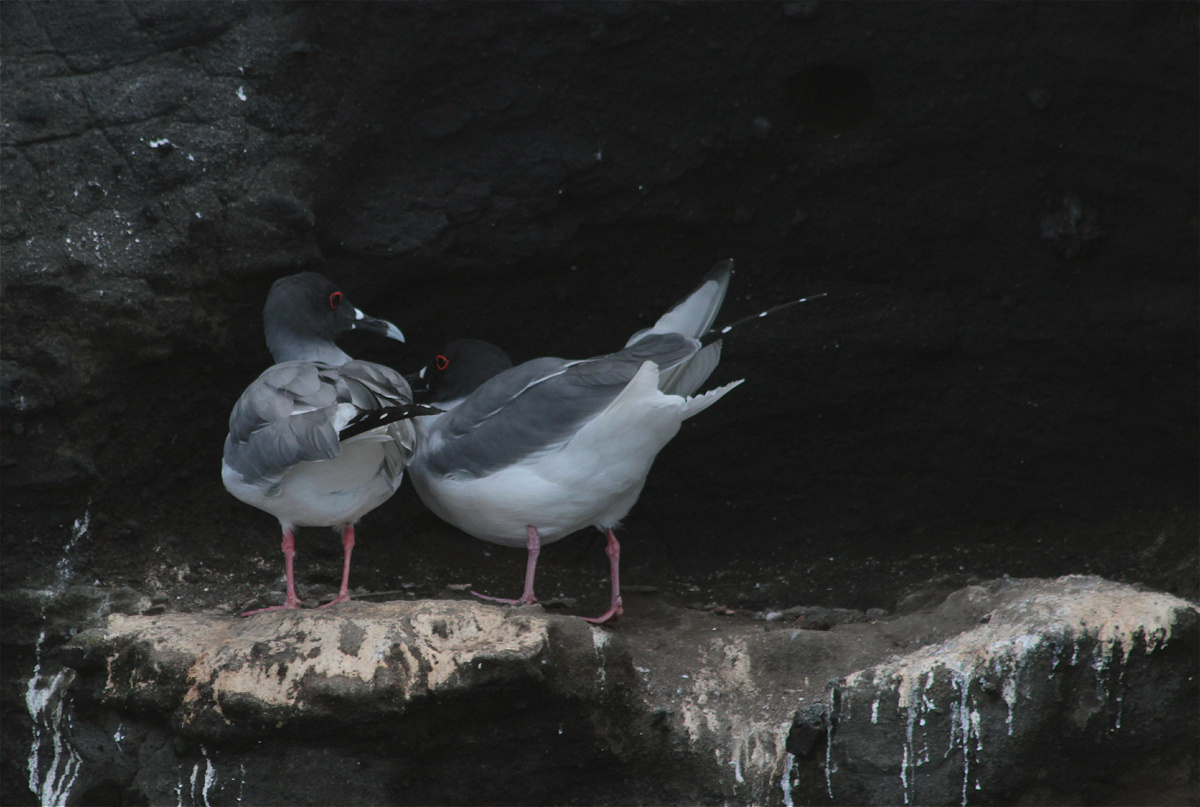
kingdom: Animalia
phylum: Chordata
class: Aves
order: Charadriiformes
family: Laridae
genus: Creagrus
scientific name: Creagrus furcatus
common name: Swallow-tailed gull
